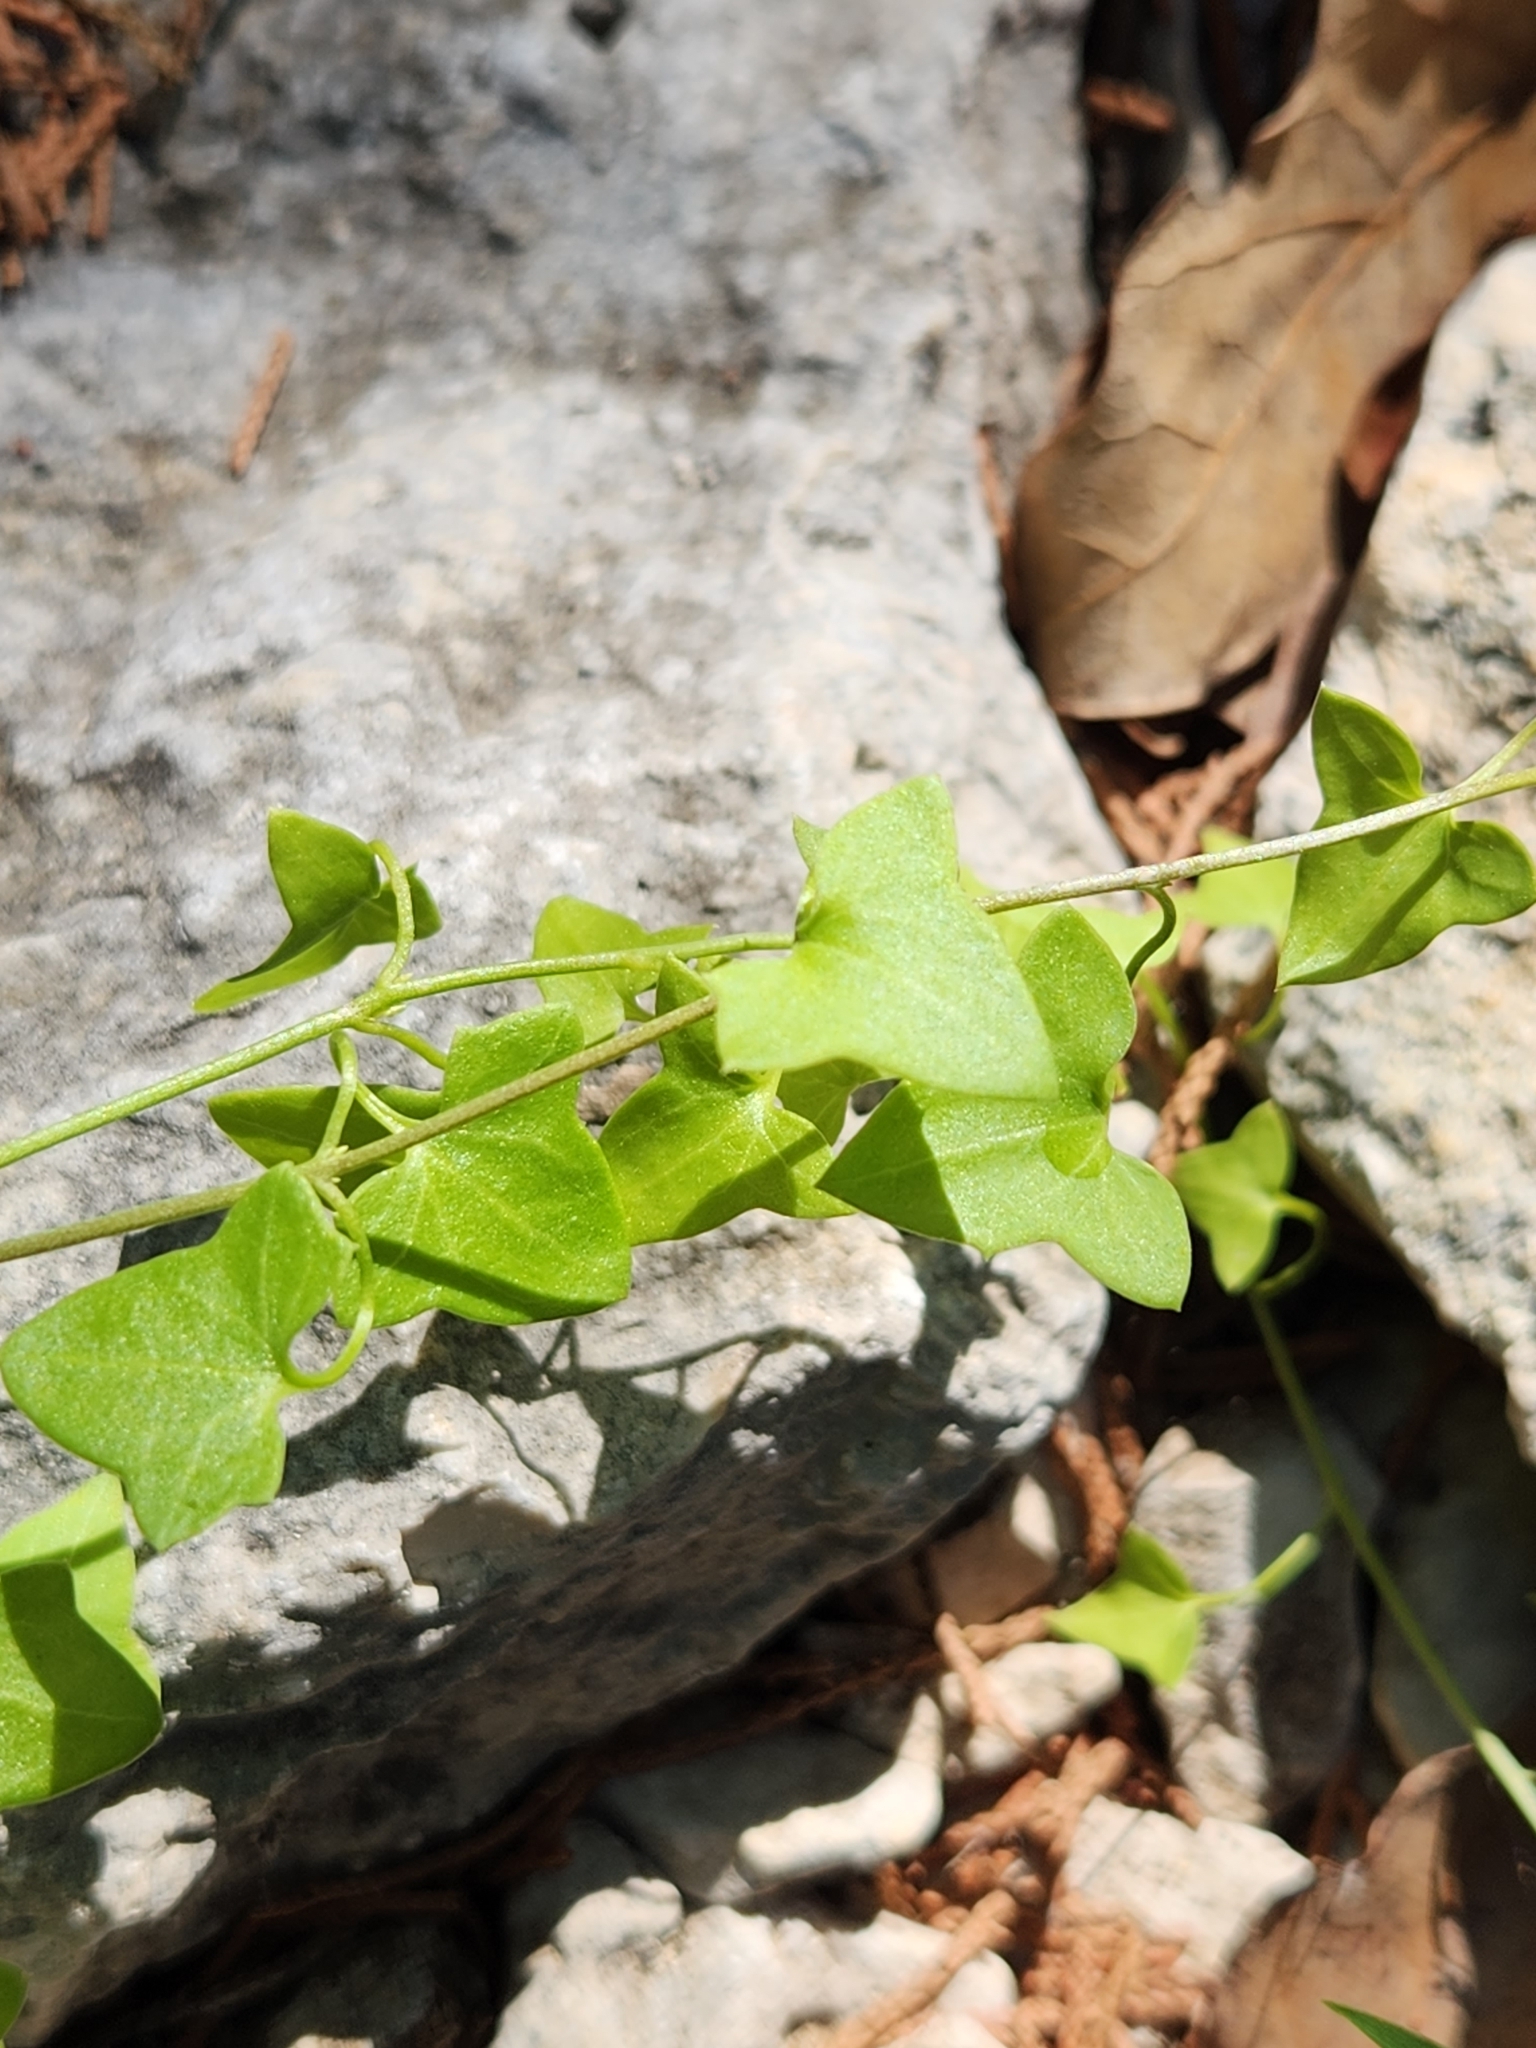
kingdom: Plantae
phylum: Tracheophyta
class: Magnoliopsida
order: Lamiales
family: Plantaginaceae
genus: Maurandella
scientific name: Maurandella antirrhiniflora
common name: Violet twining-snapdragon
